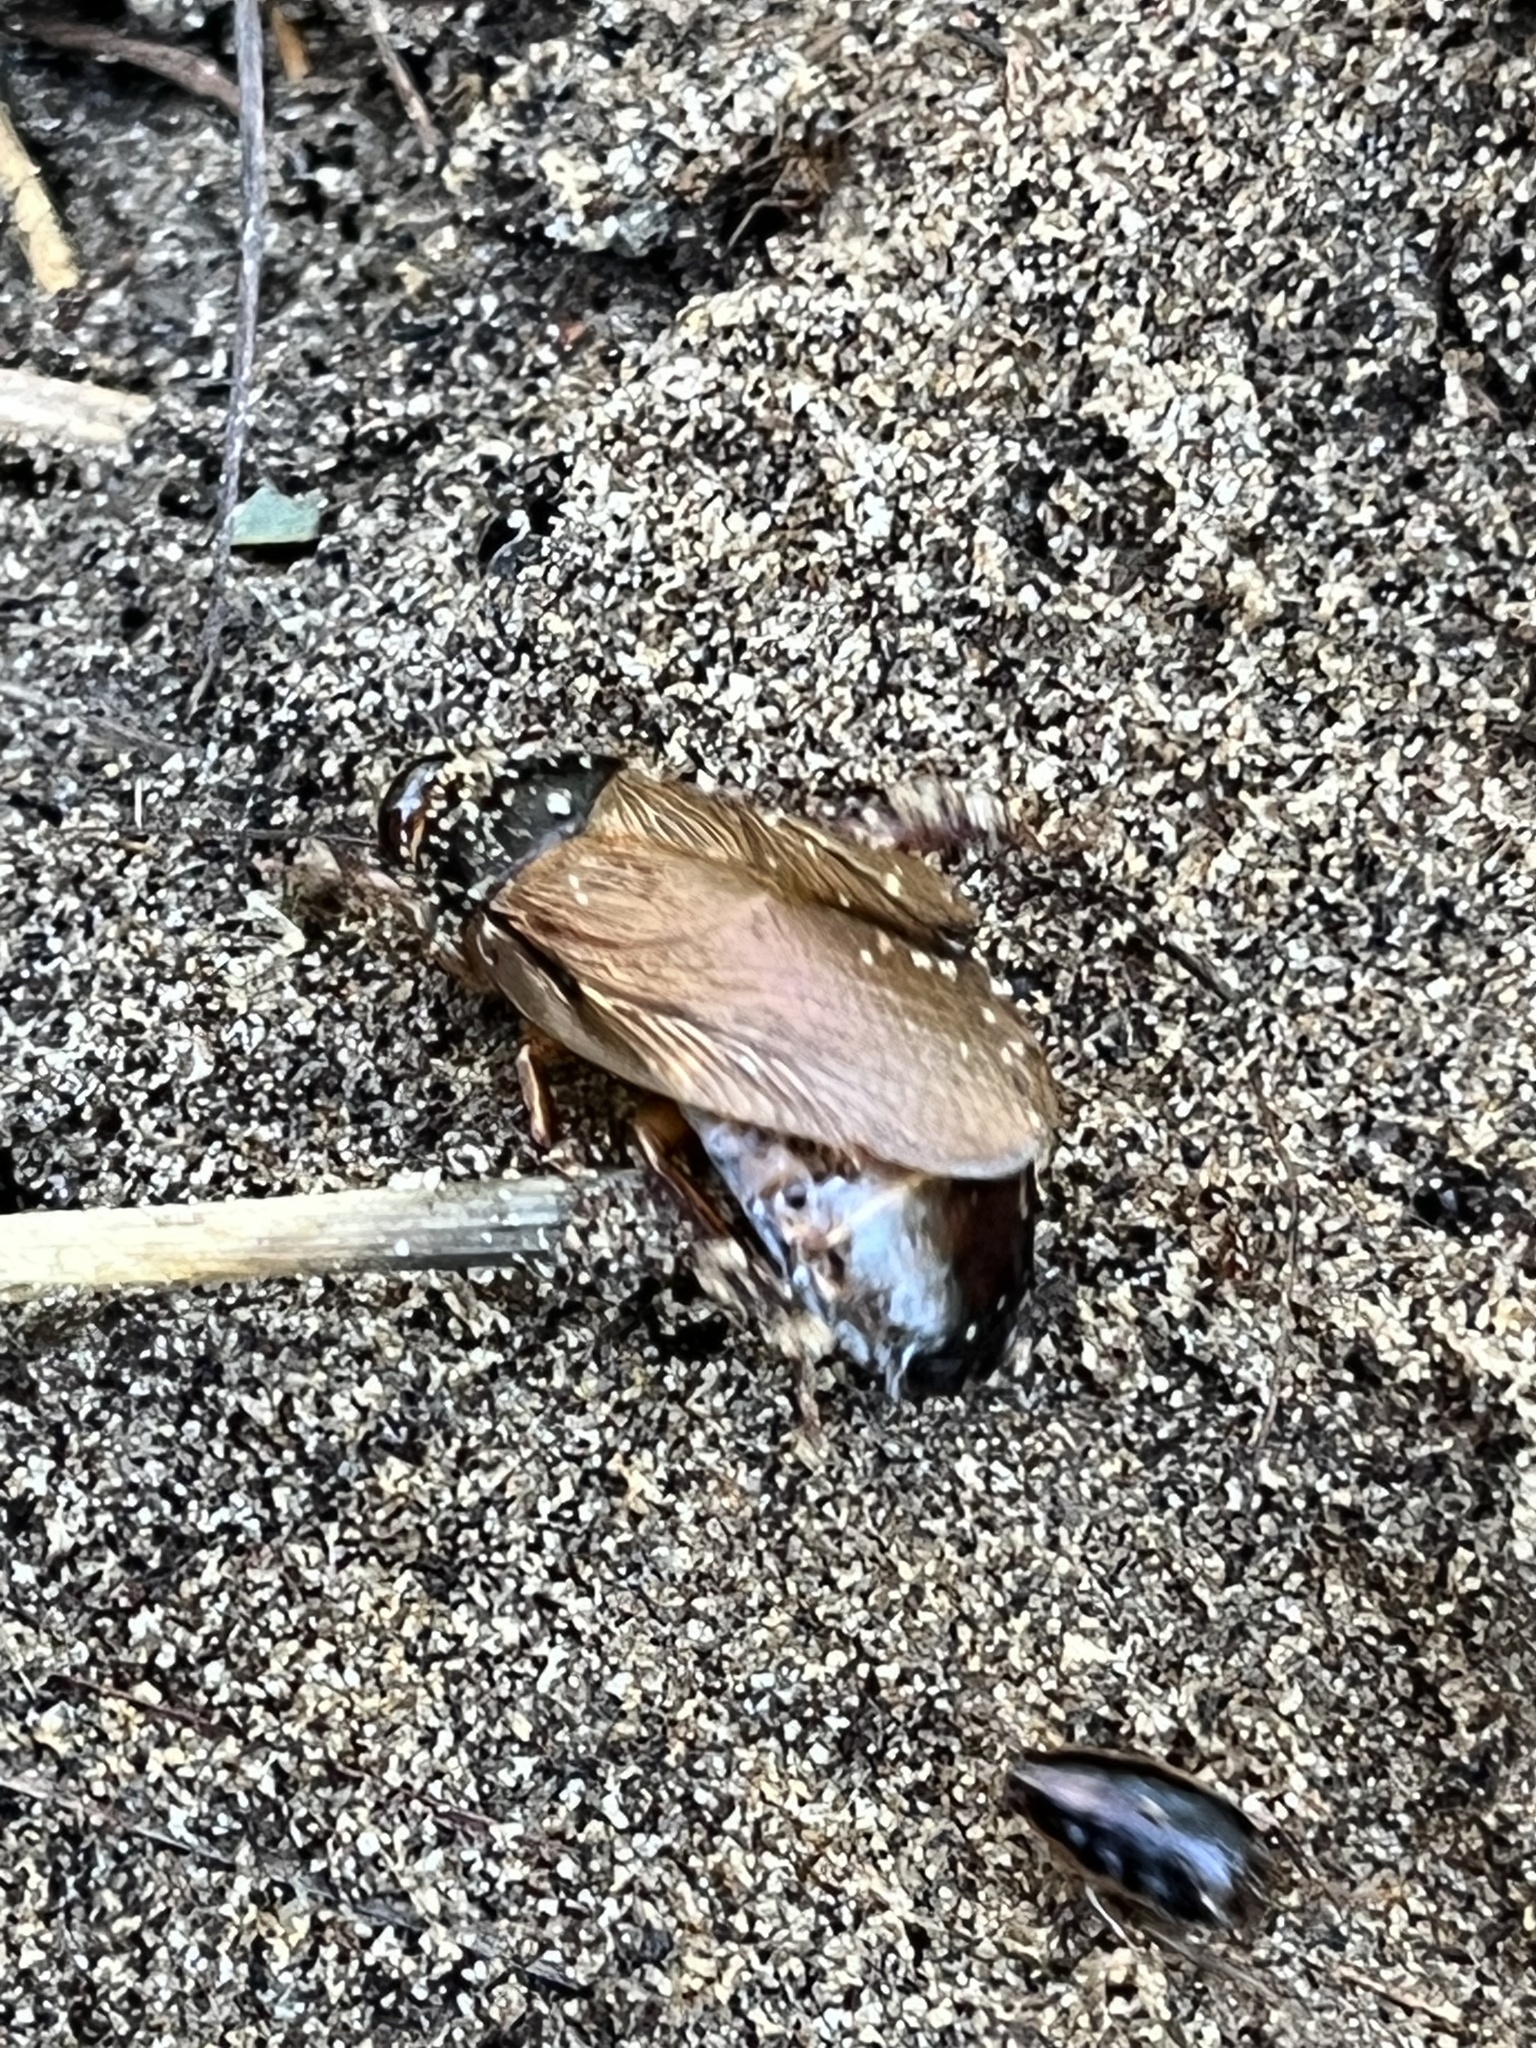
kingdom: Animalia
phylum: Arthropoda
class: Insecta
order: Blattodea
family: Blaberidae
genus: Pycnoscelus
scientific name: Pycnoscelus surinamensis
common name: Surinam cockroach
